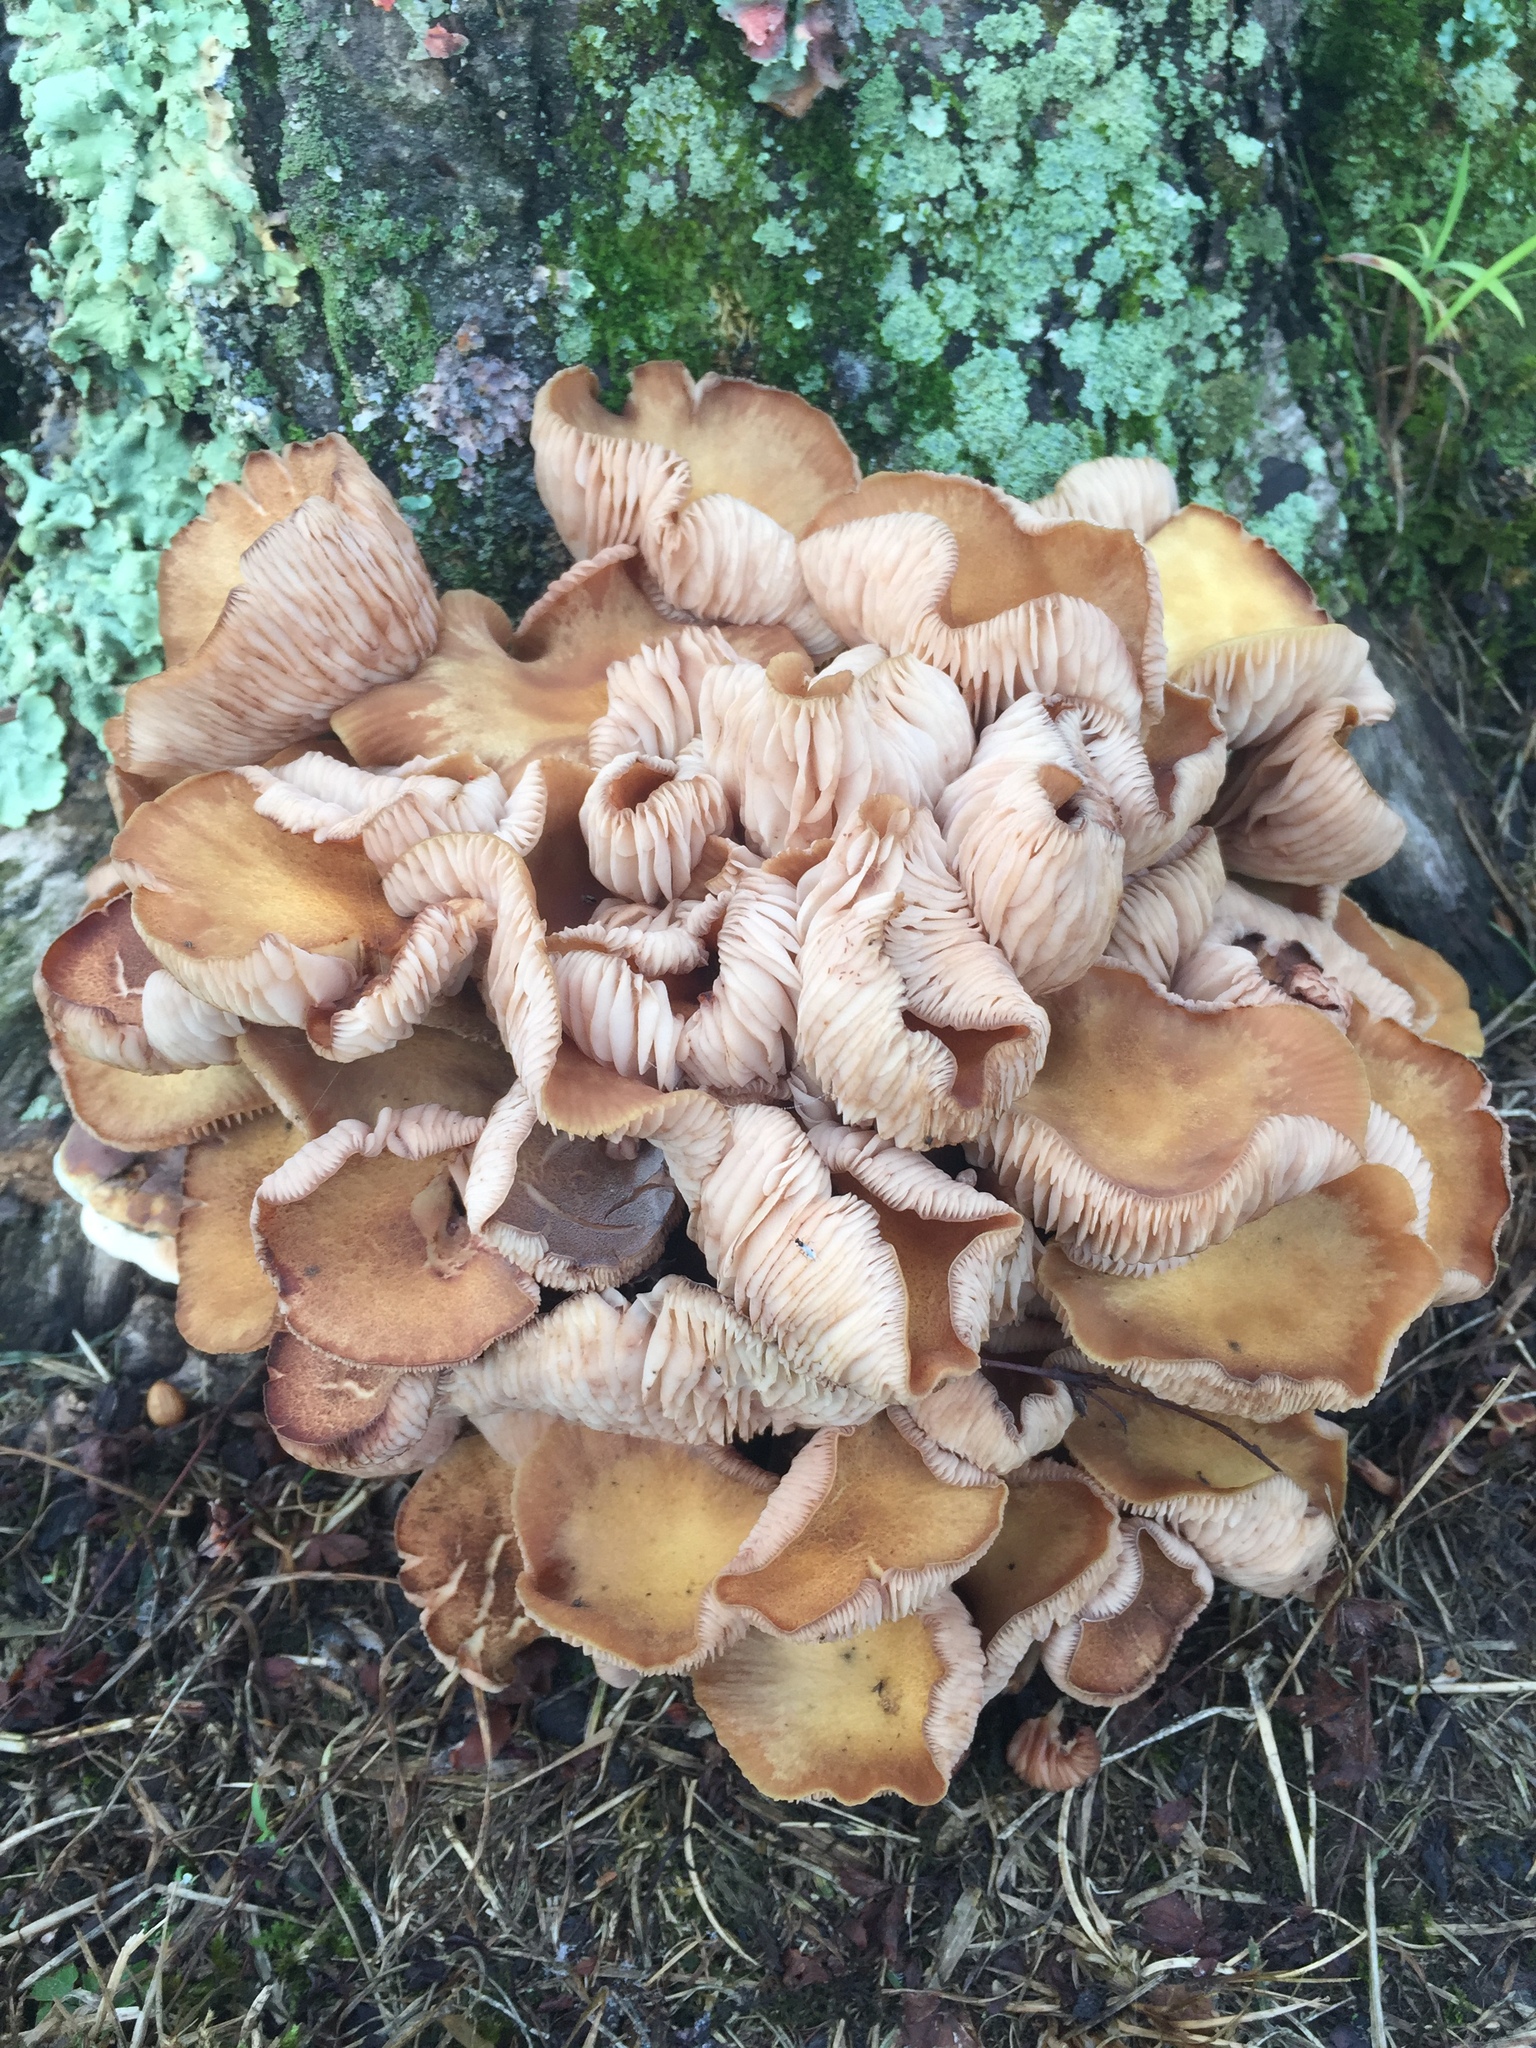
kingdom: Fungi
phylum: Basidiomycota
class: Agaricomycetes
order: Agaricales
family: Physalacriaceae
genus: Desarmillaria
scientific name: Desarmillaria caespitosa
